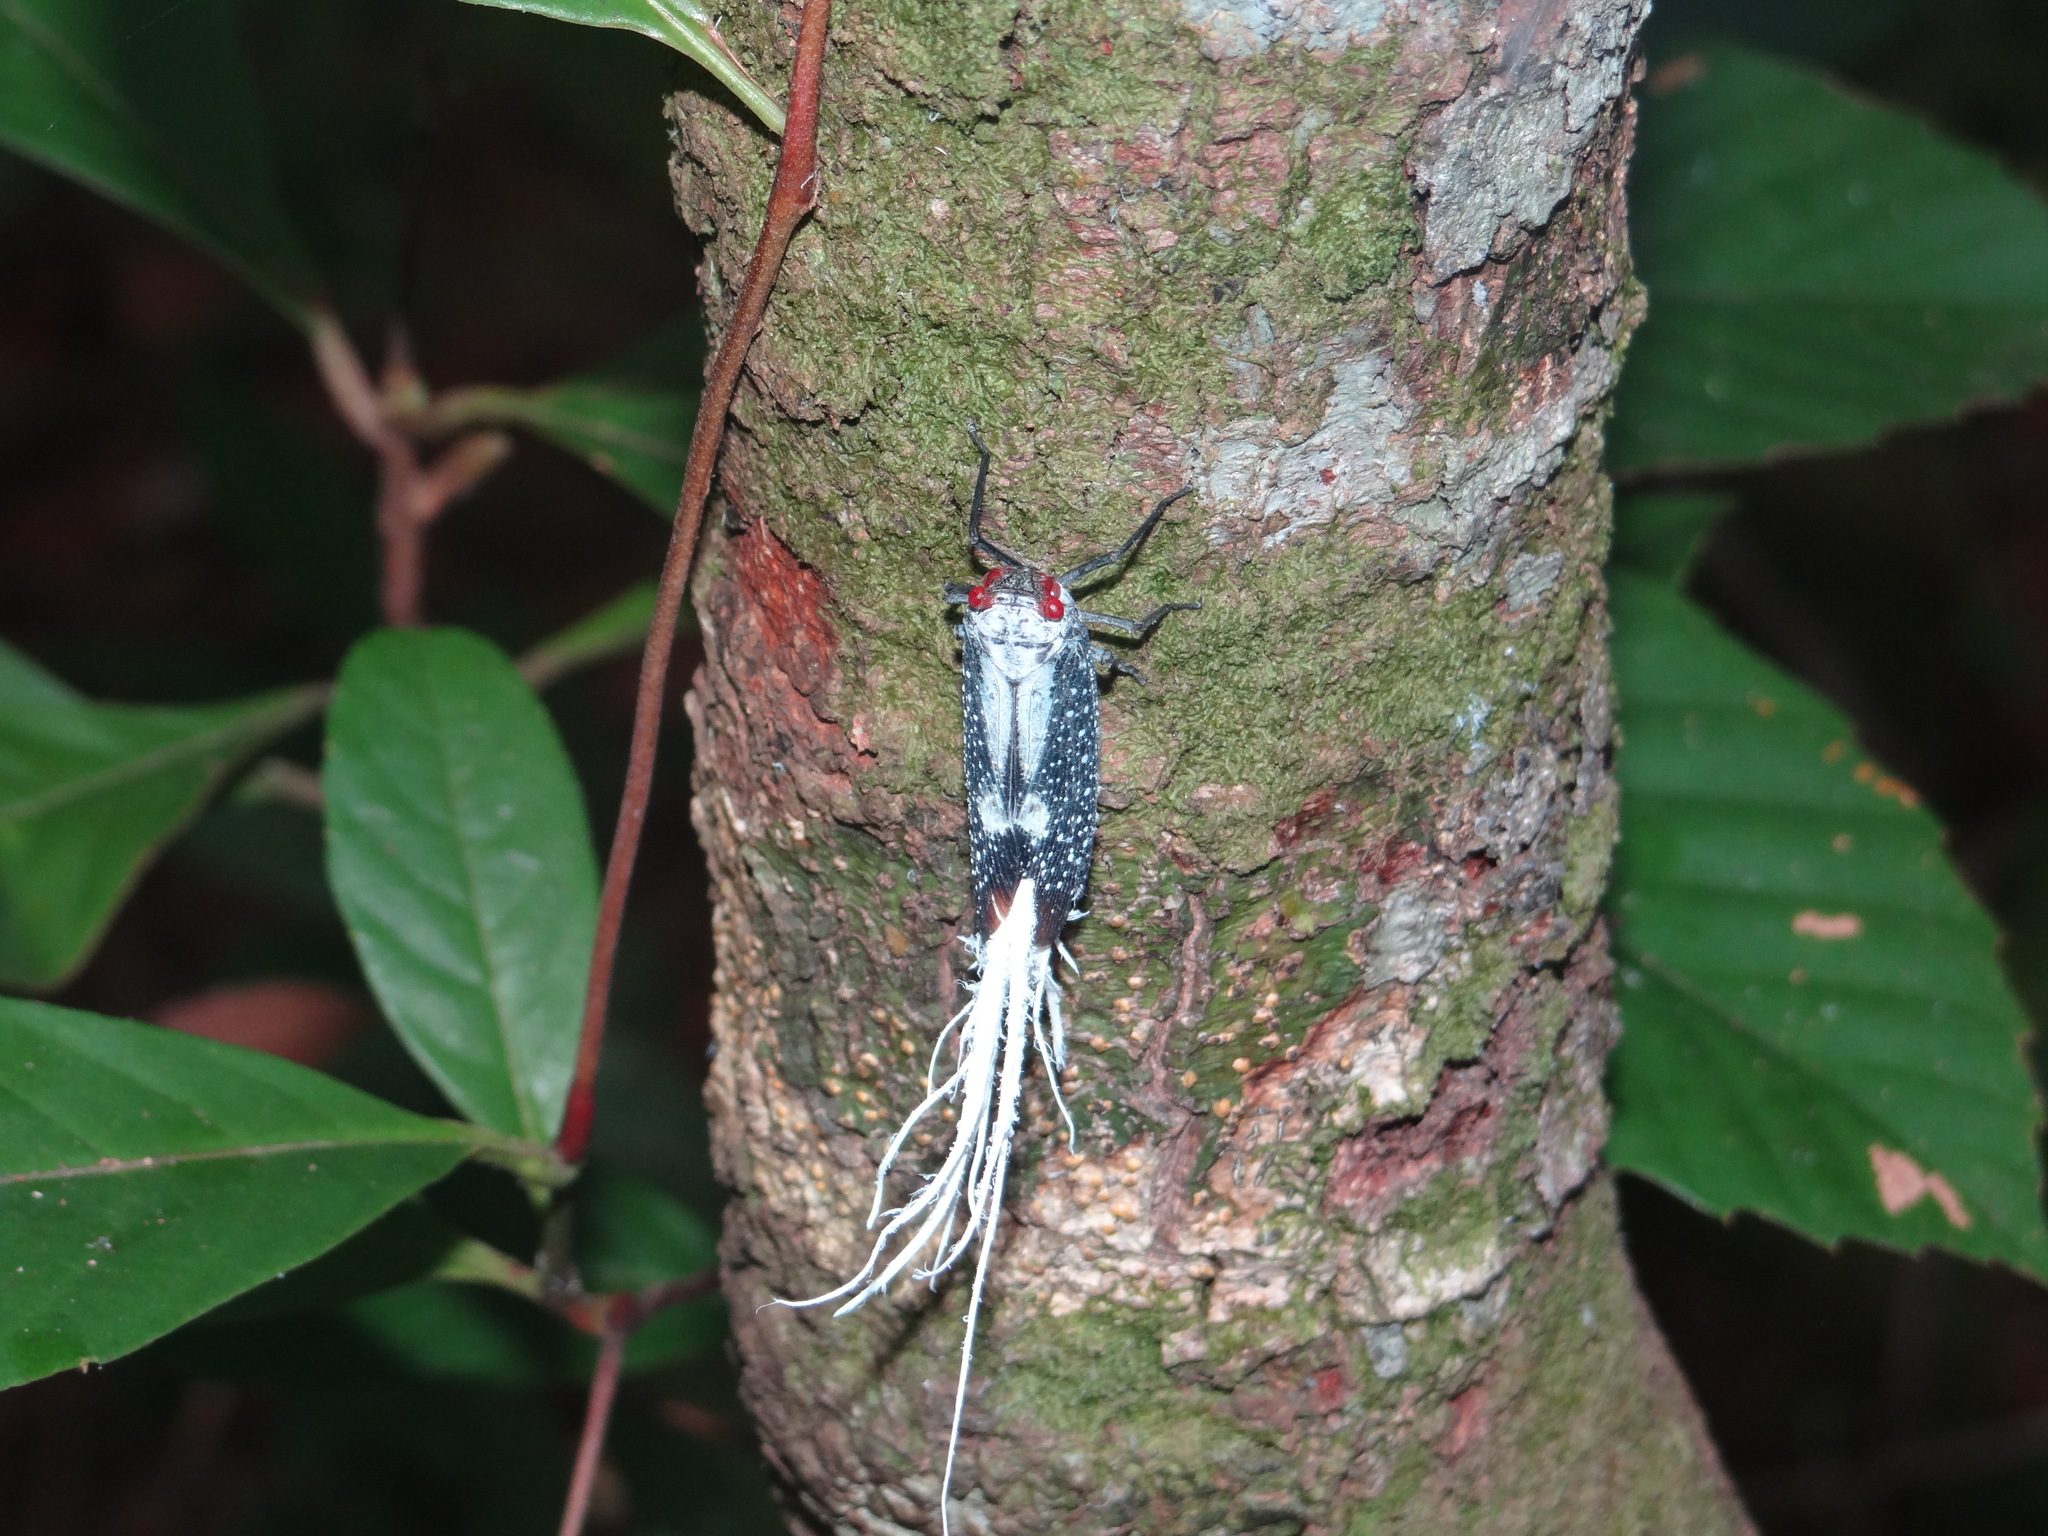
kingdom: Animalia
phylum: Arthropoda
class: Insecta
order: Hemiptera
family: Fulgoridae
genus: Lystra
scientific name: Lystra lanata
